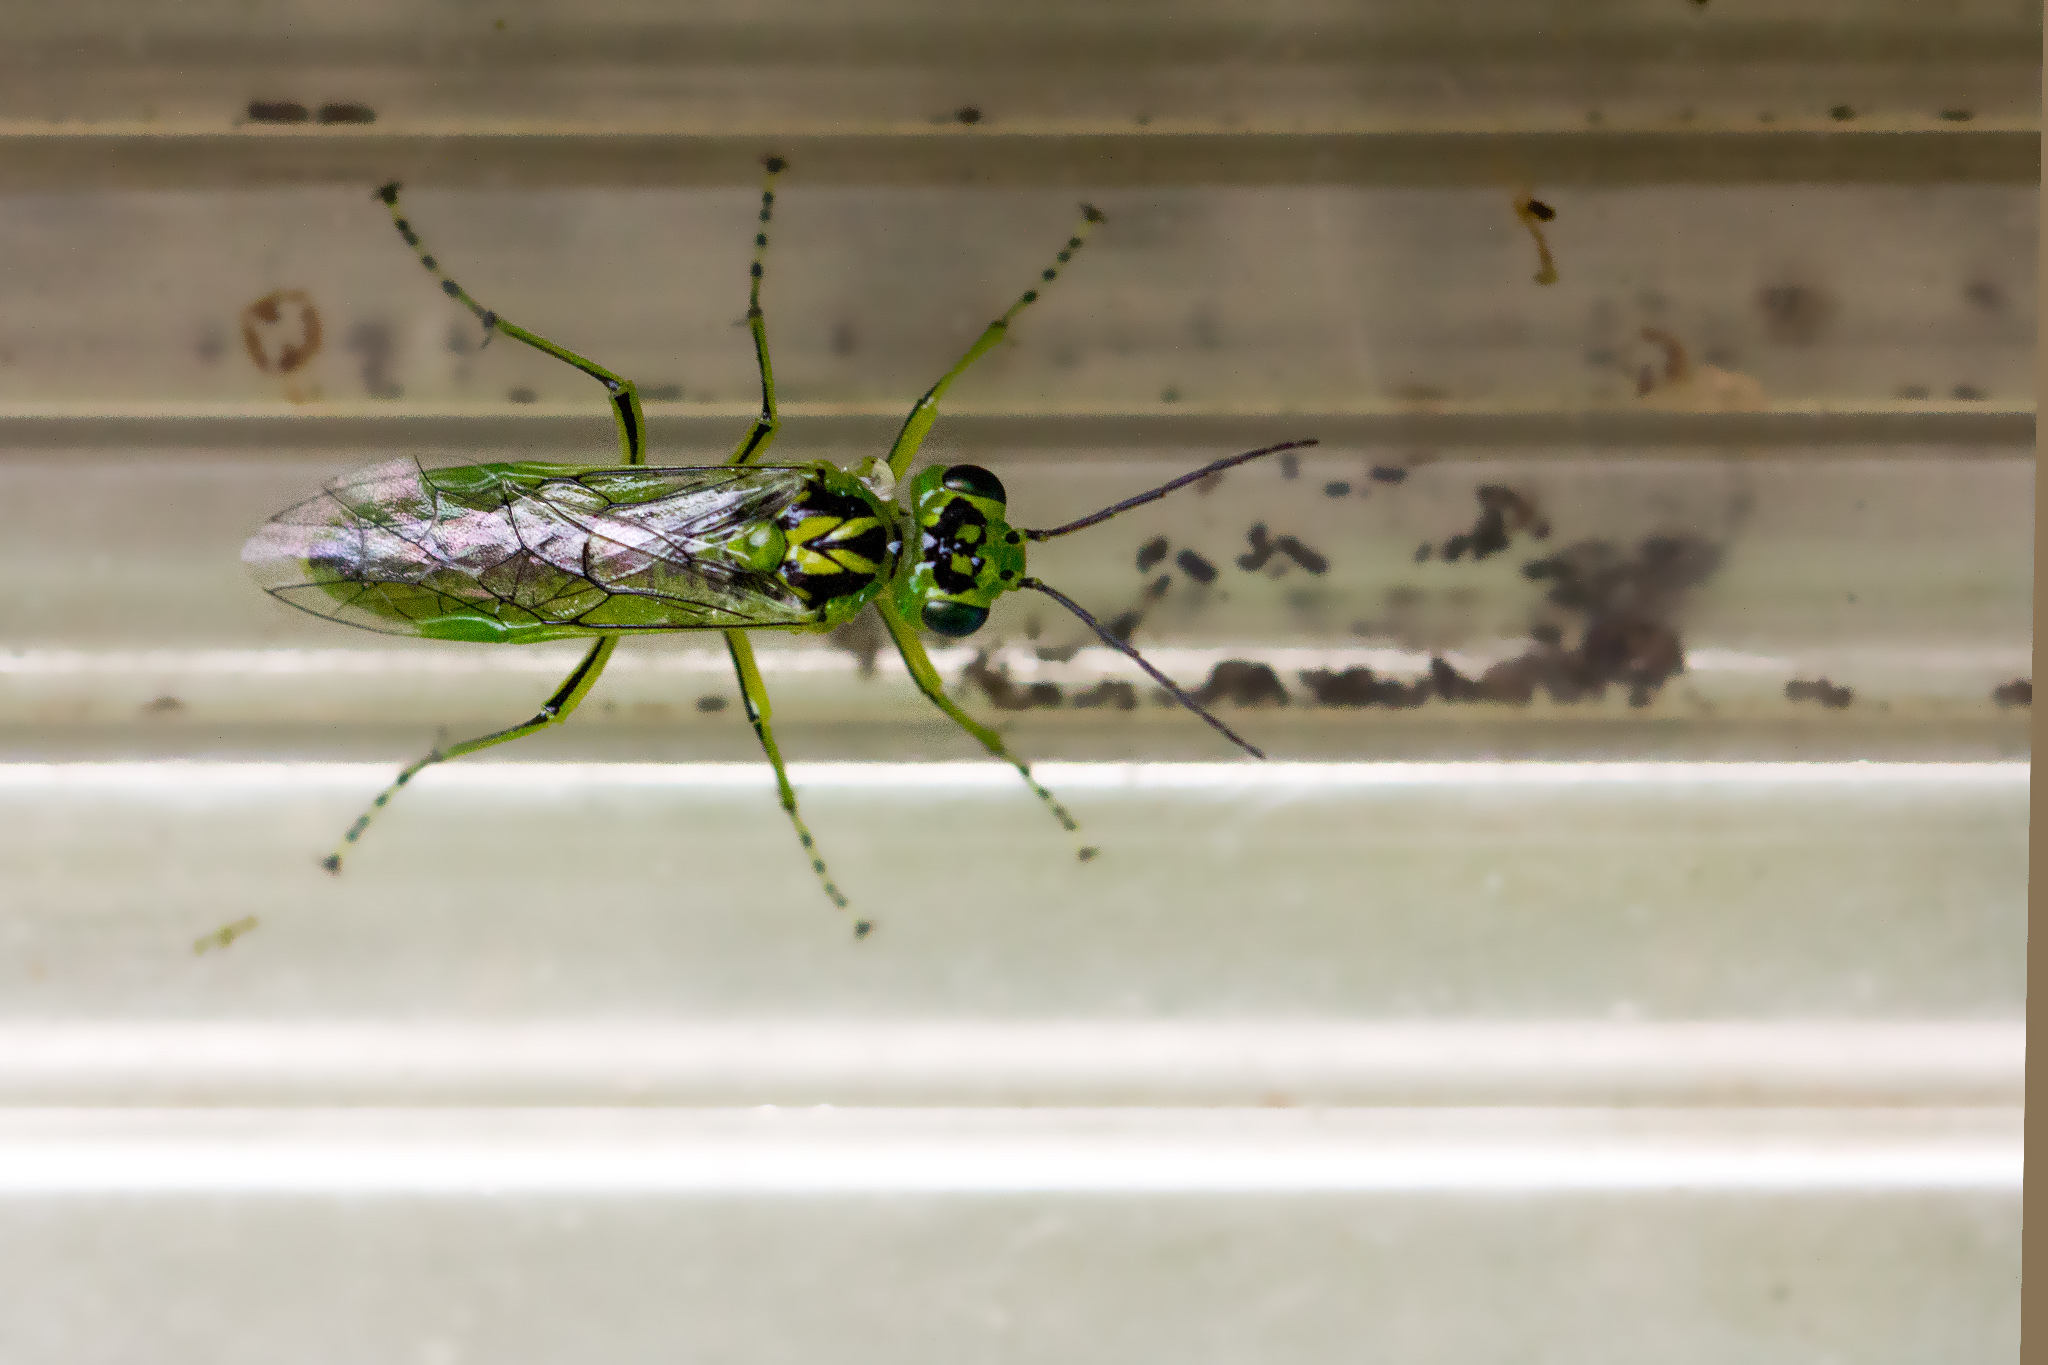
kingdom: Animalia
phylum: Arthropoda
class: Insecta
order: Hymenoptera
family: Tenthredinidae
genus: Rhogogaster
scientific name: Rhogogaster chlorosoma
